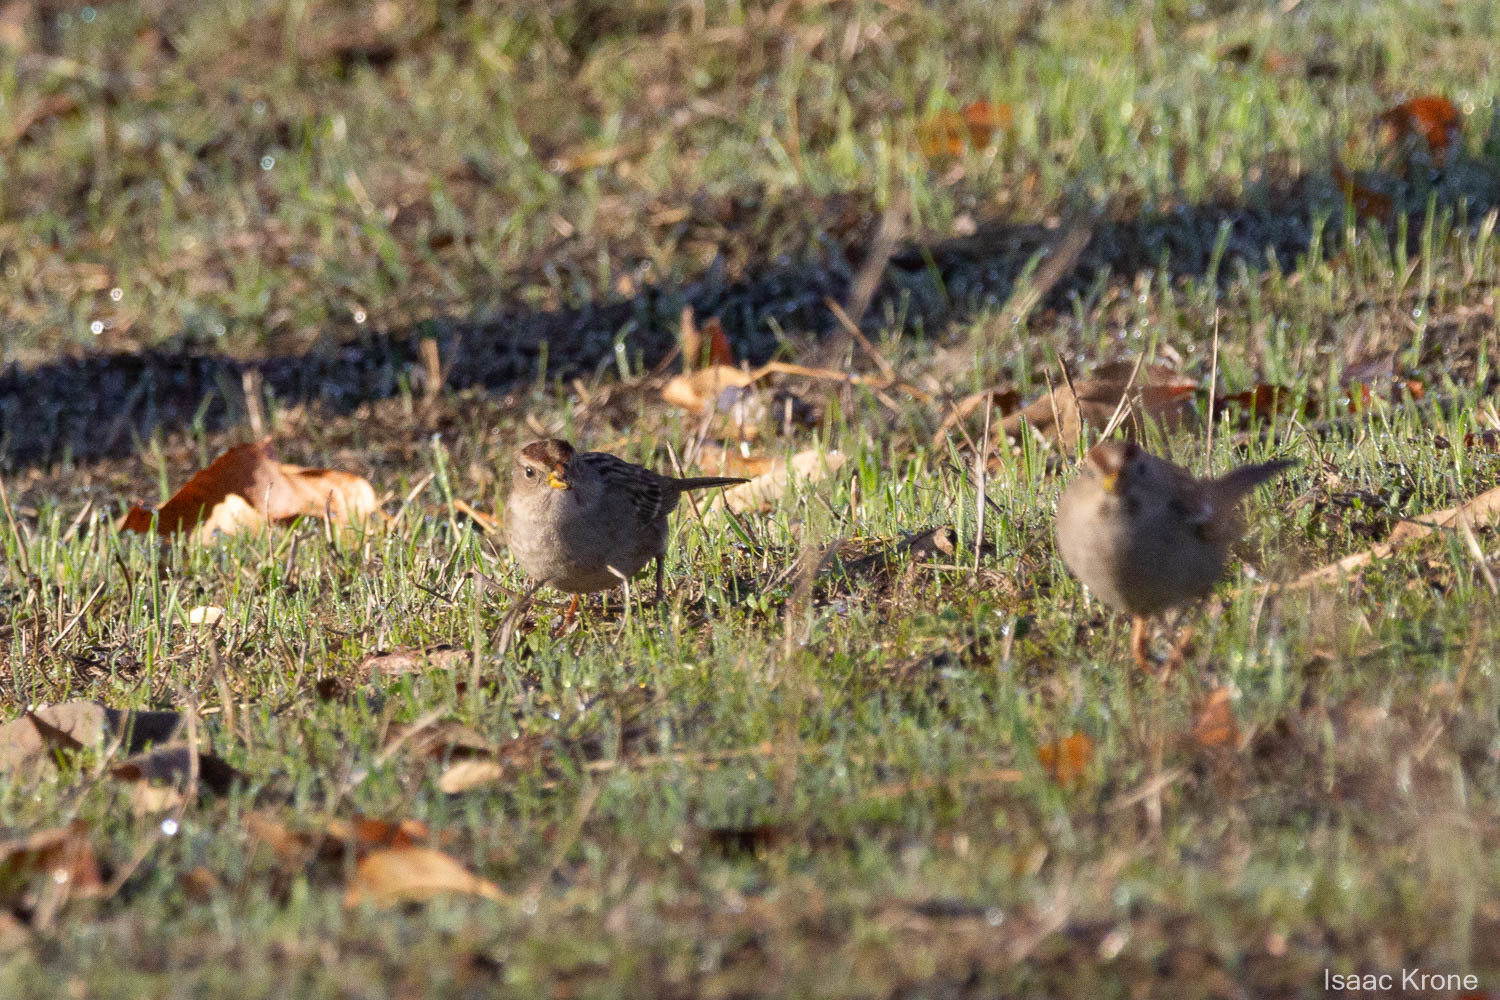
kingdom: Animalia
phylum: Chordata
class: Aves
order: Passeriformes
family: Passerellidae
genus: Zonotrichia
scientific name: Zonotrichia leucophrys
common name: White-crowned sparrow
